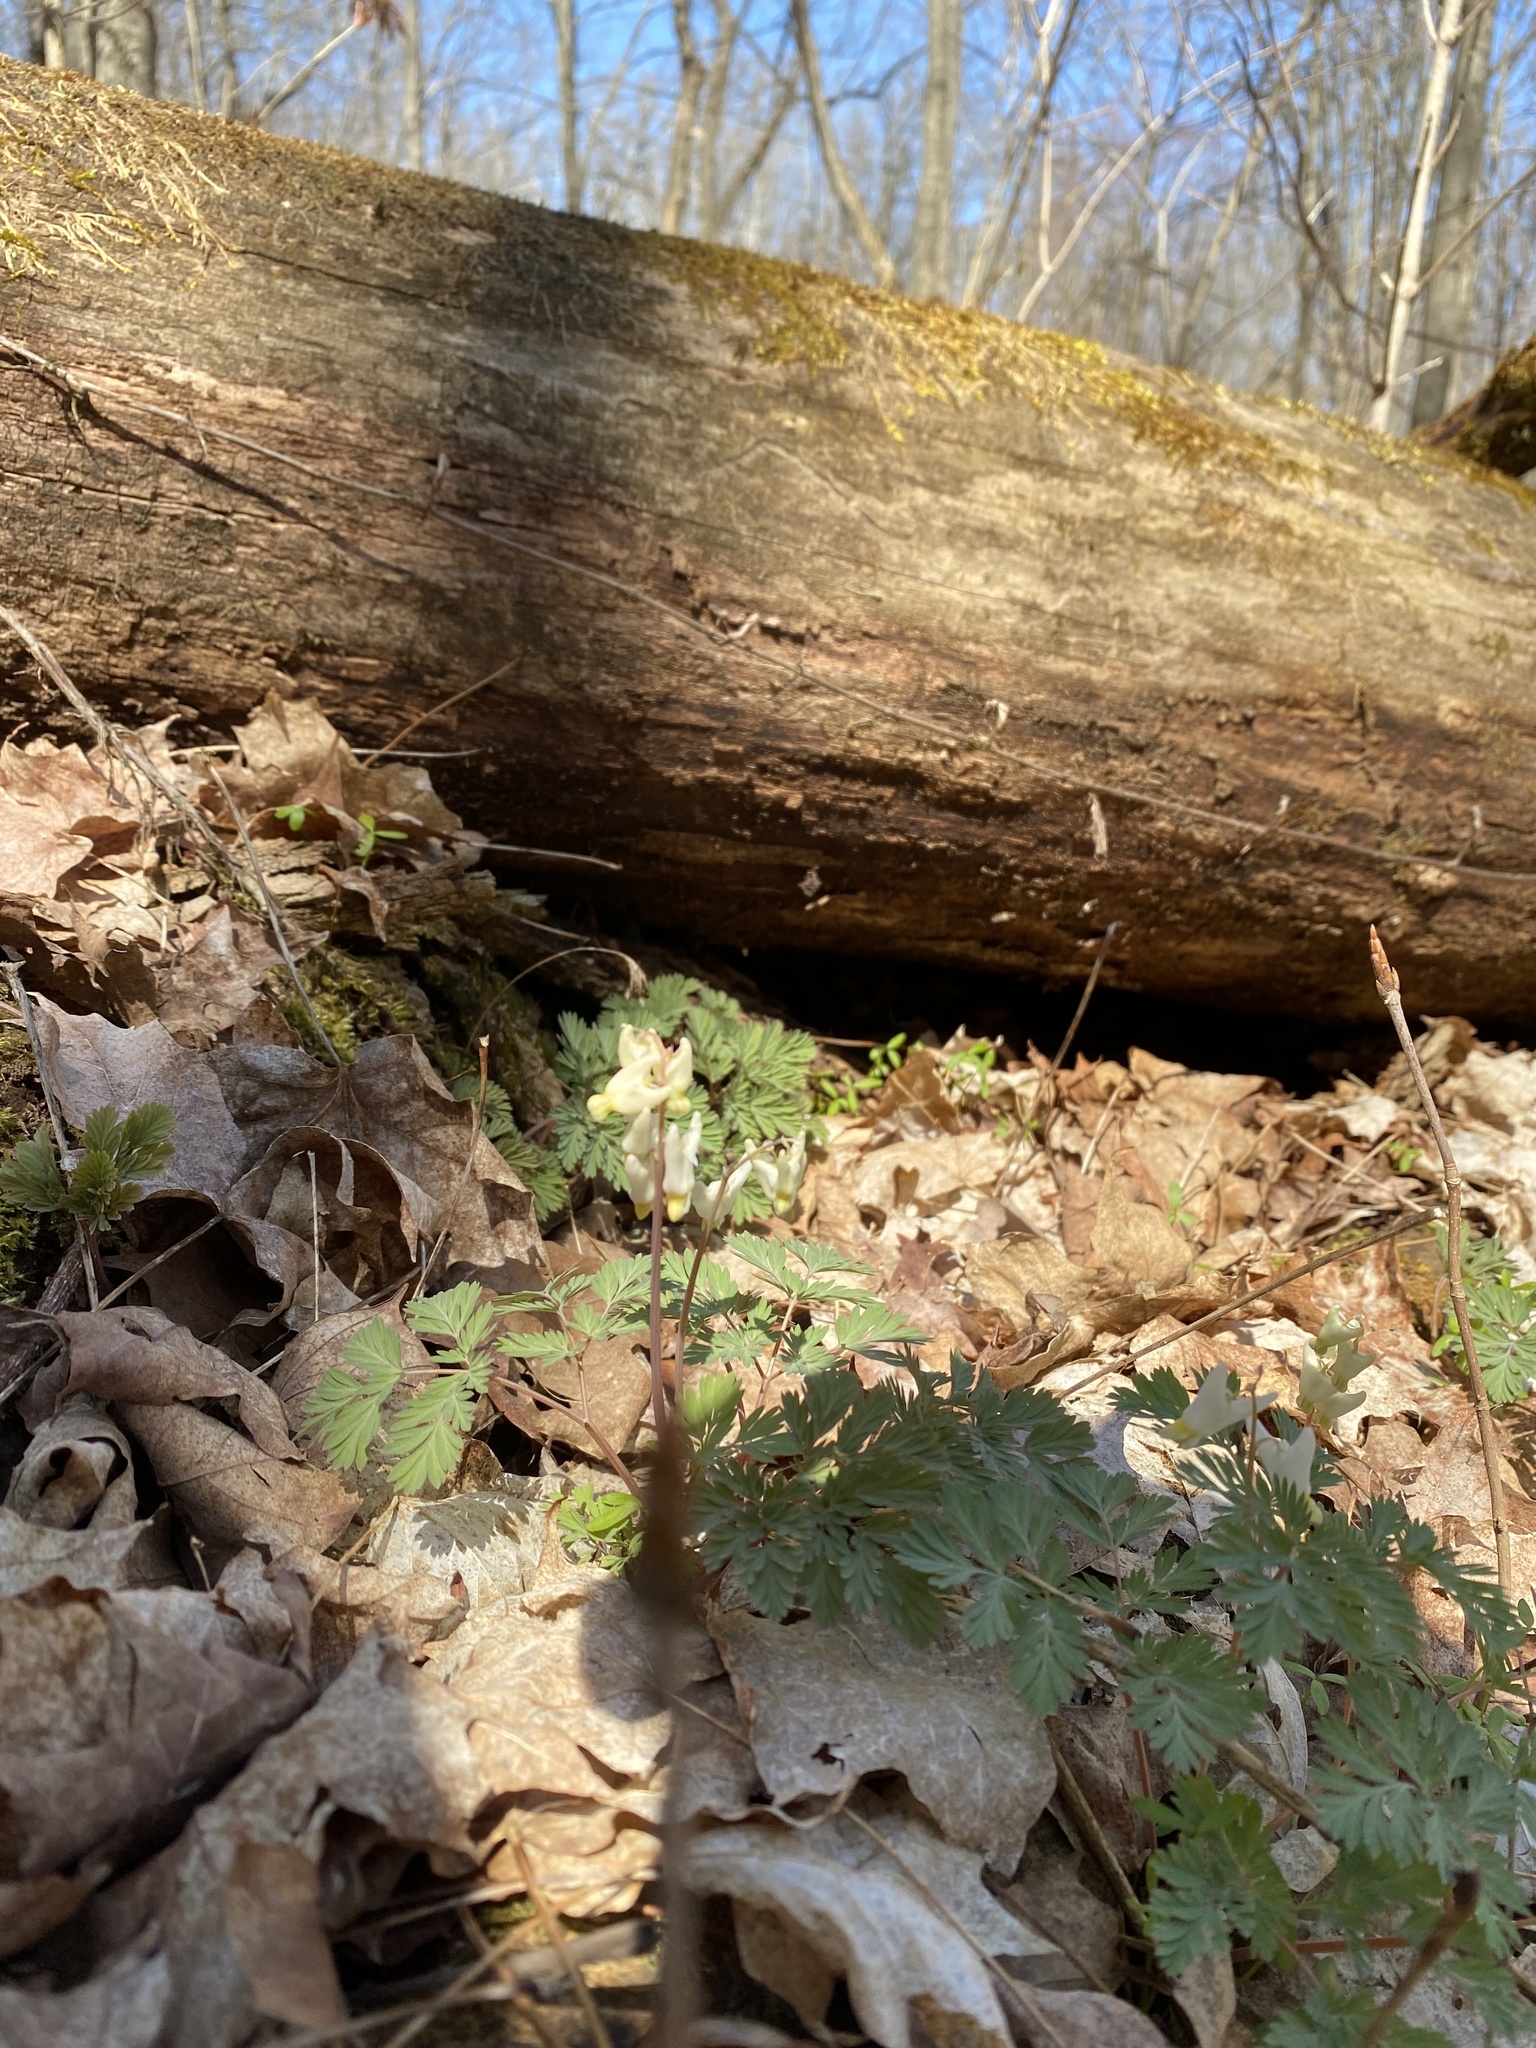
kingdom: Plantae
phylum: Tracheophyta
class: Magnoliopsida
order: Ranunculales
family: Papaveraceae
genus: Dicentra
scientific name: Dicentra cucullaria
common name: Dutchman's breeches
